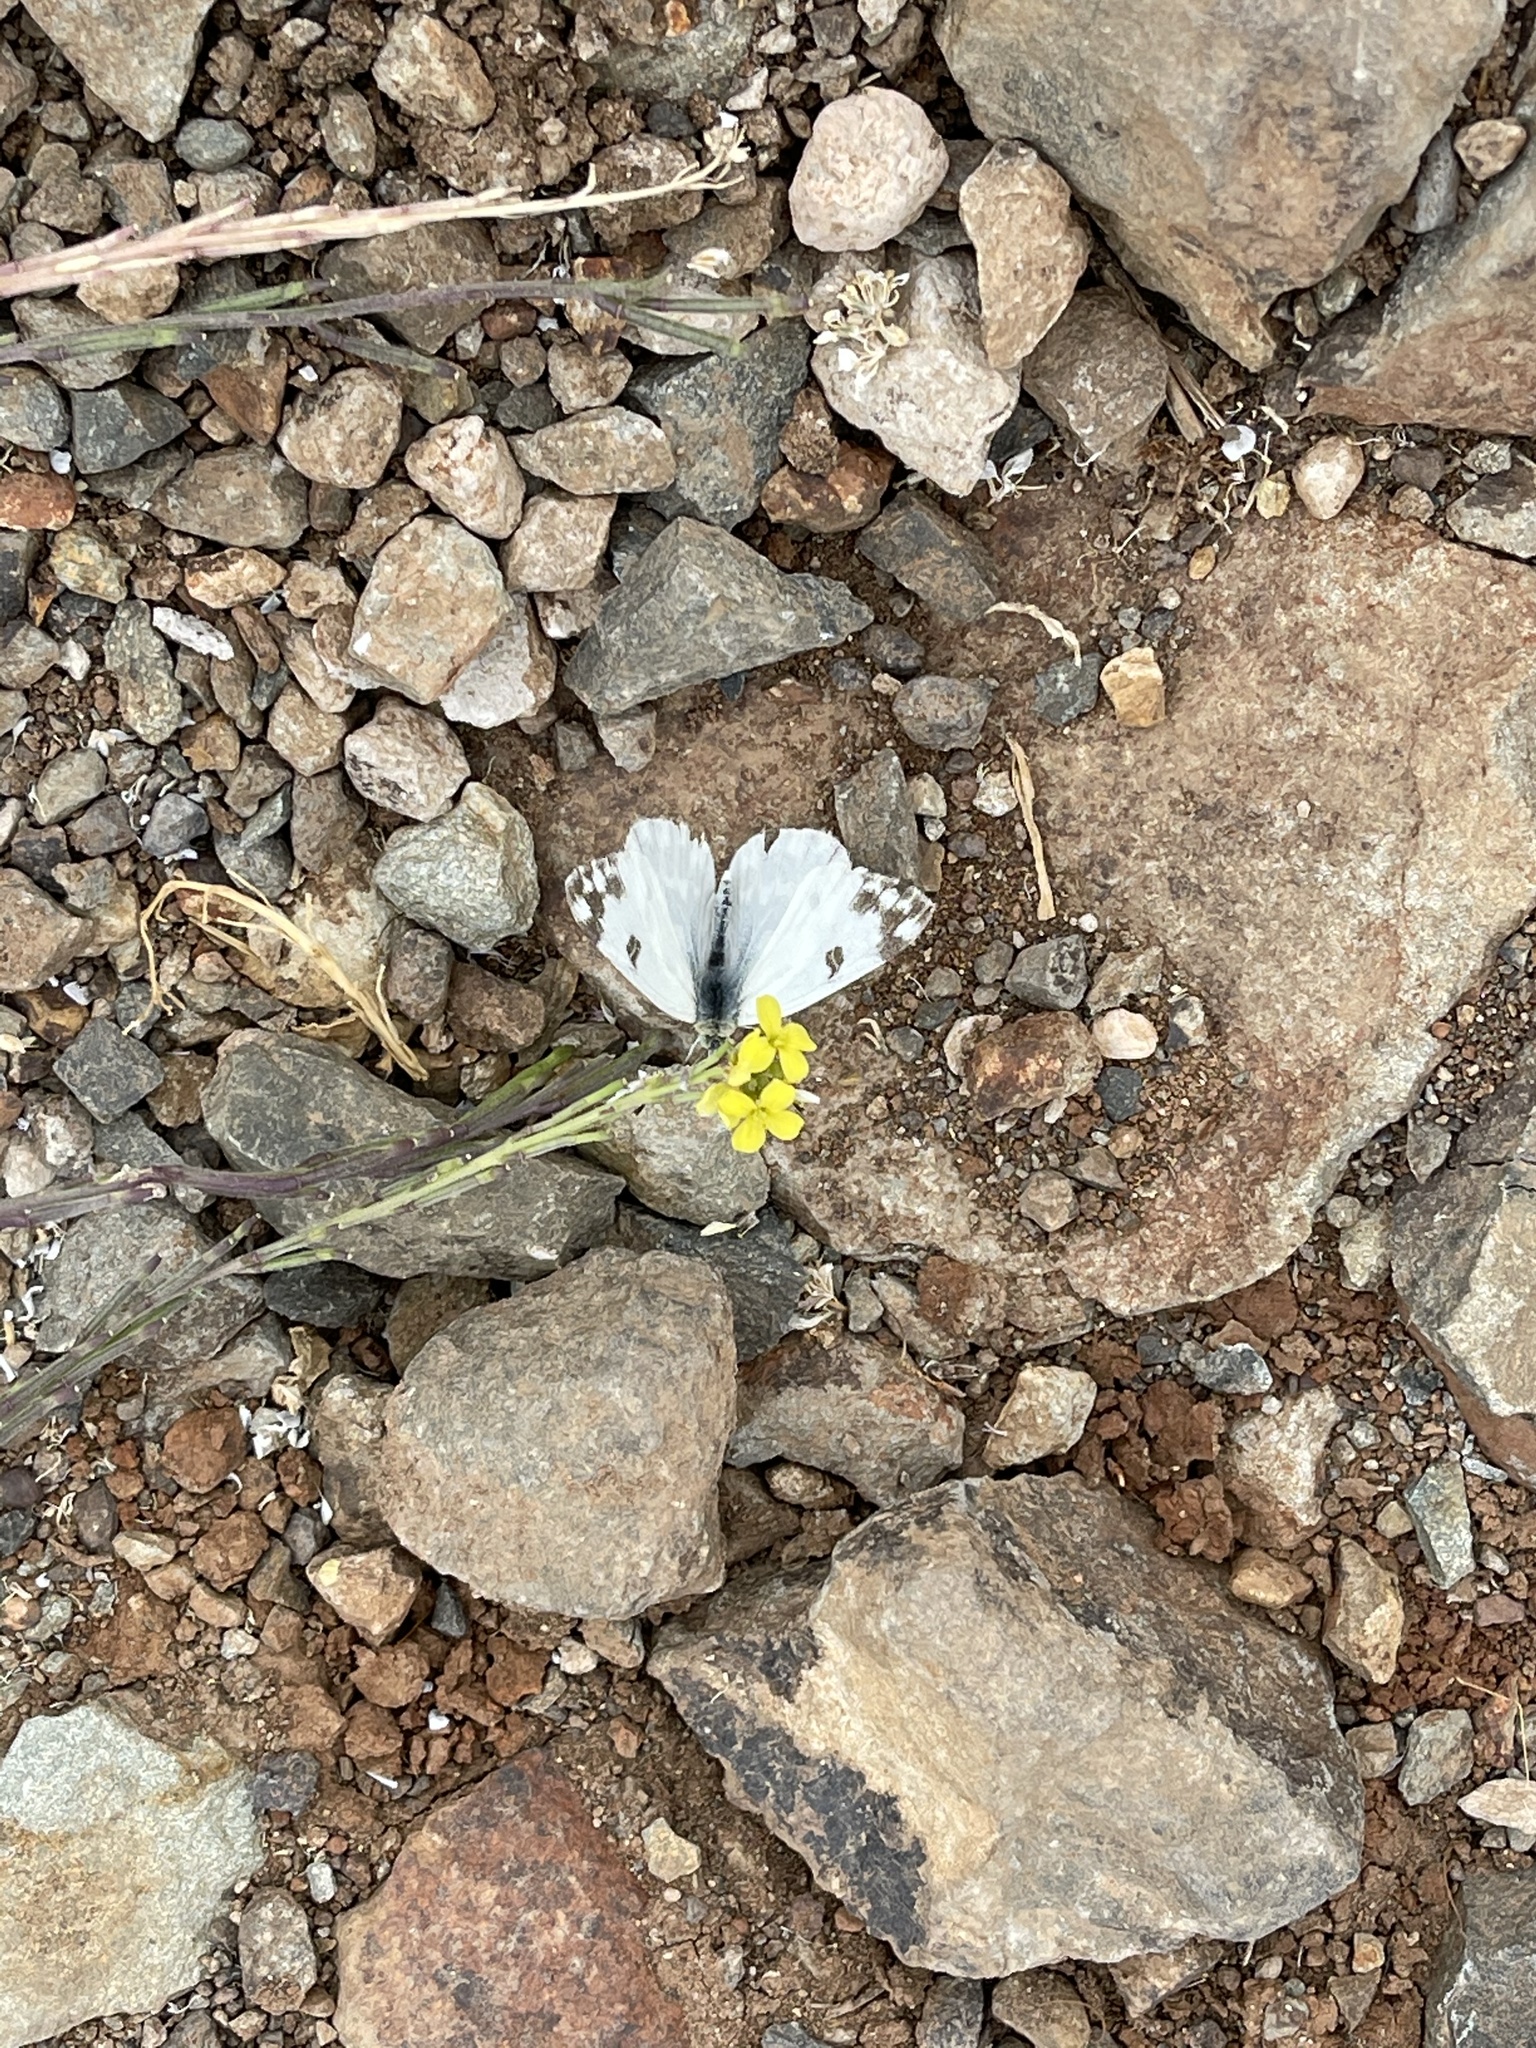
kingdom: Animalia
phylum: Arthropoda
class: Insecta
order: Lepidoptera
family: Pieridae
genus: Pontia
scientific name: Pontia daplidice
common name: Bath white
